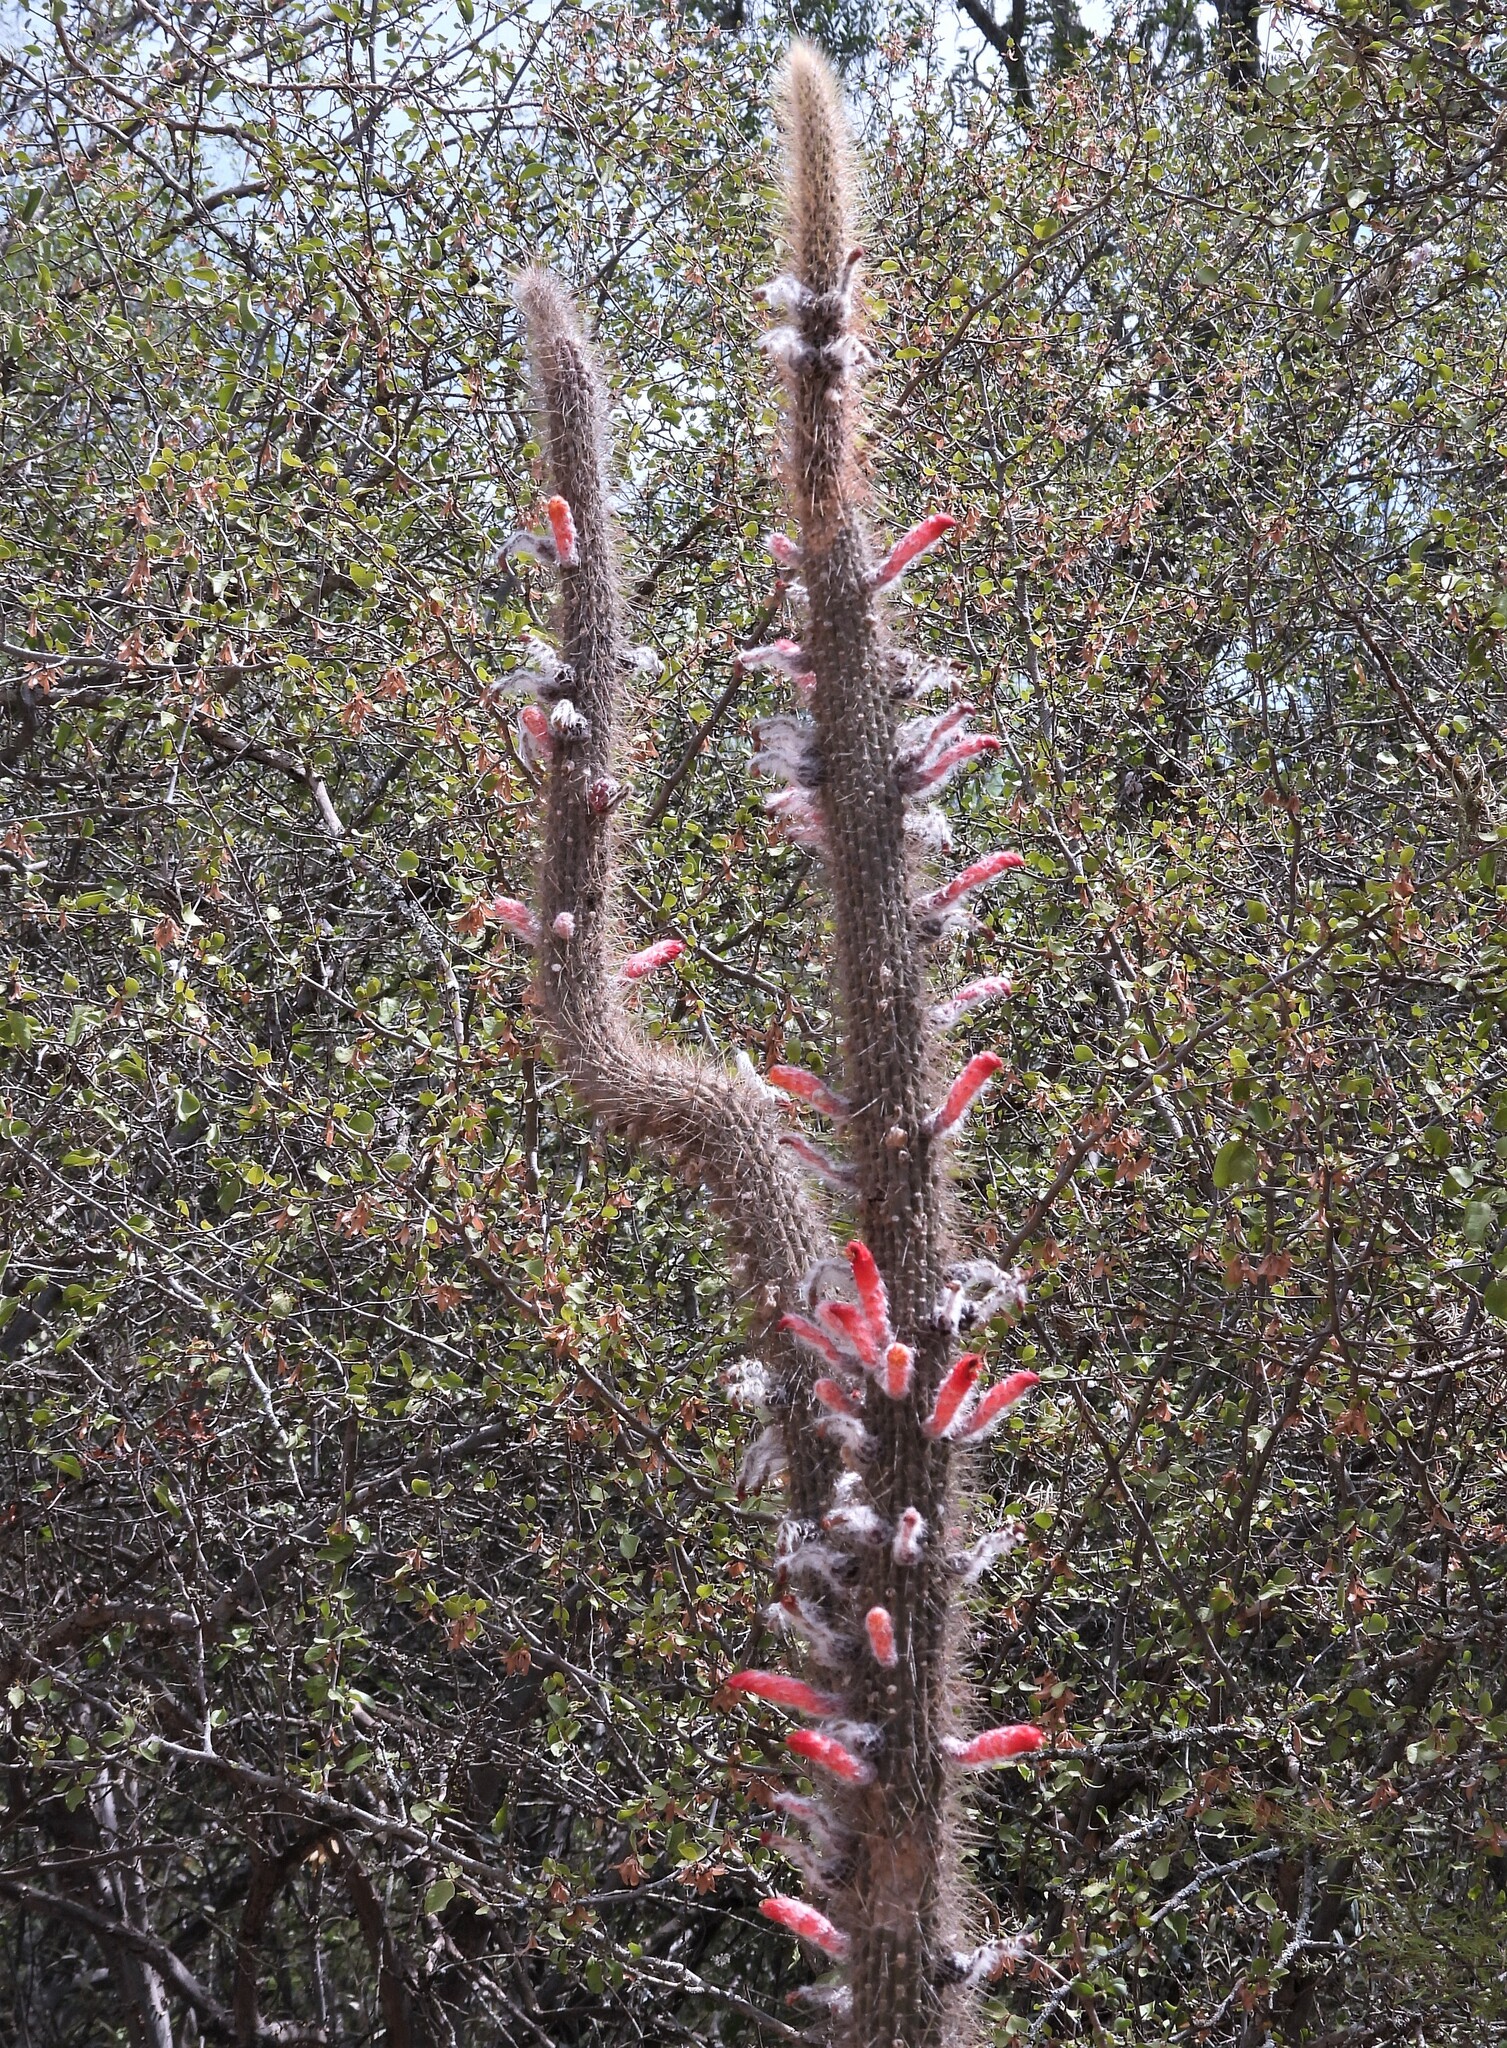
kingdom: Plantae
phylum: Tracheophyta
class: Magnoliopsida
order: Caryophyllales
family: Cactaceae
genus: Cleistocactus
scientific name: Cleistocactus baumannii
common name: Scarlet-bugler
